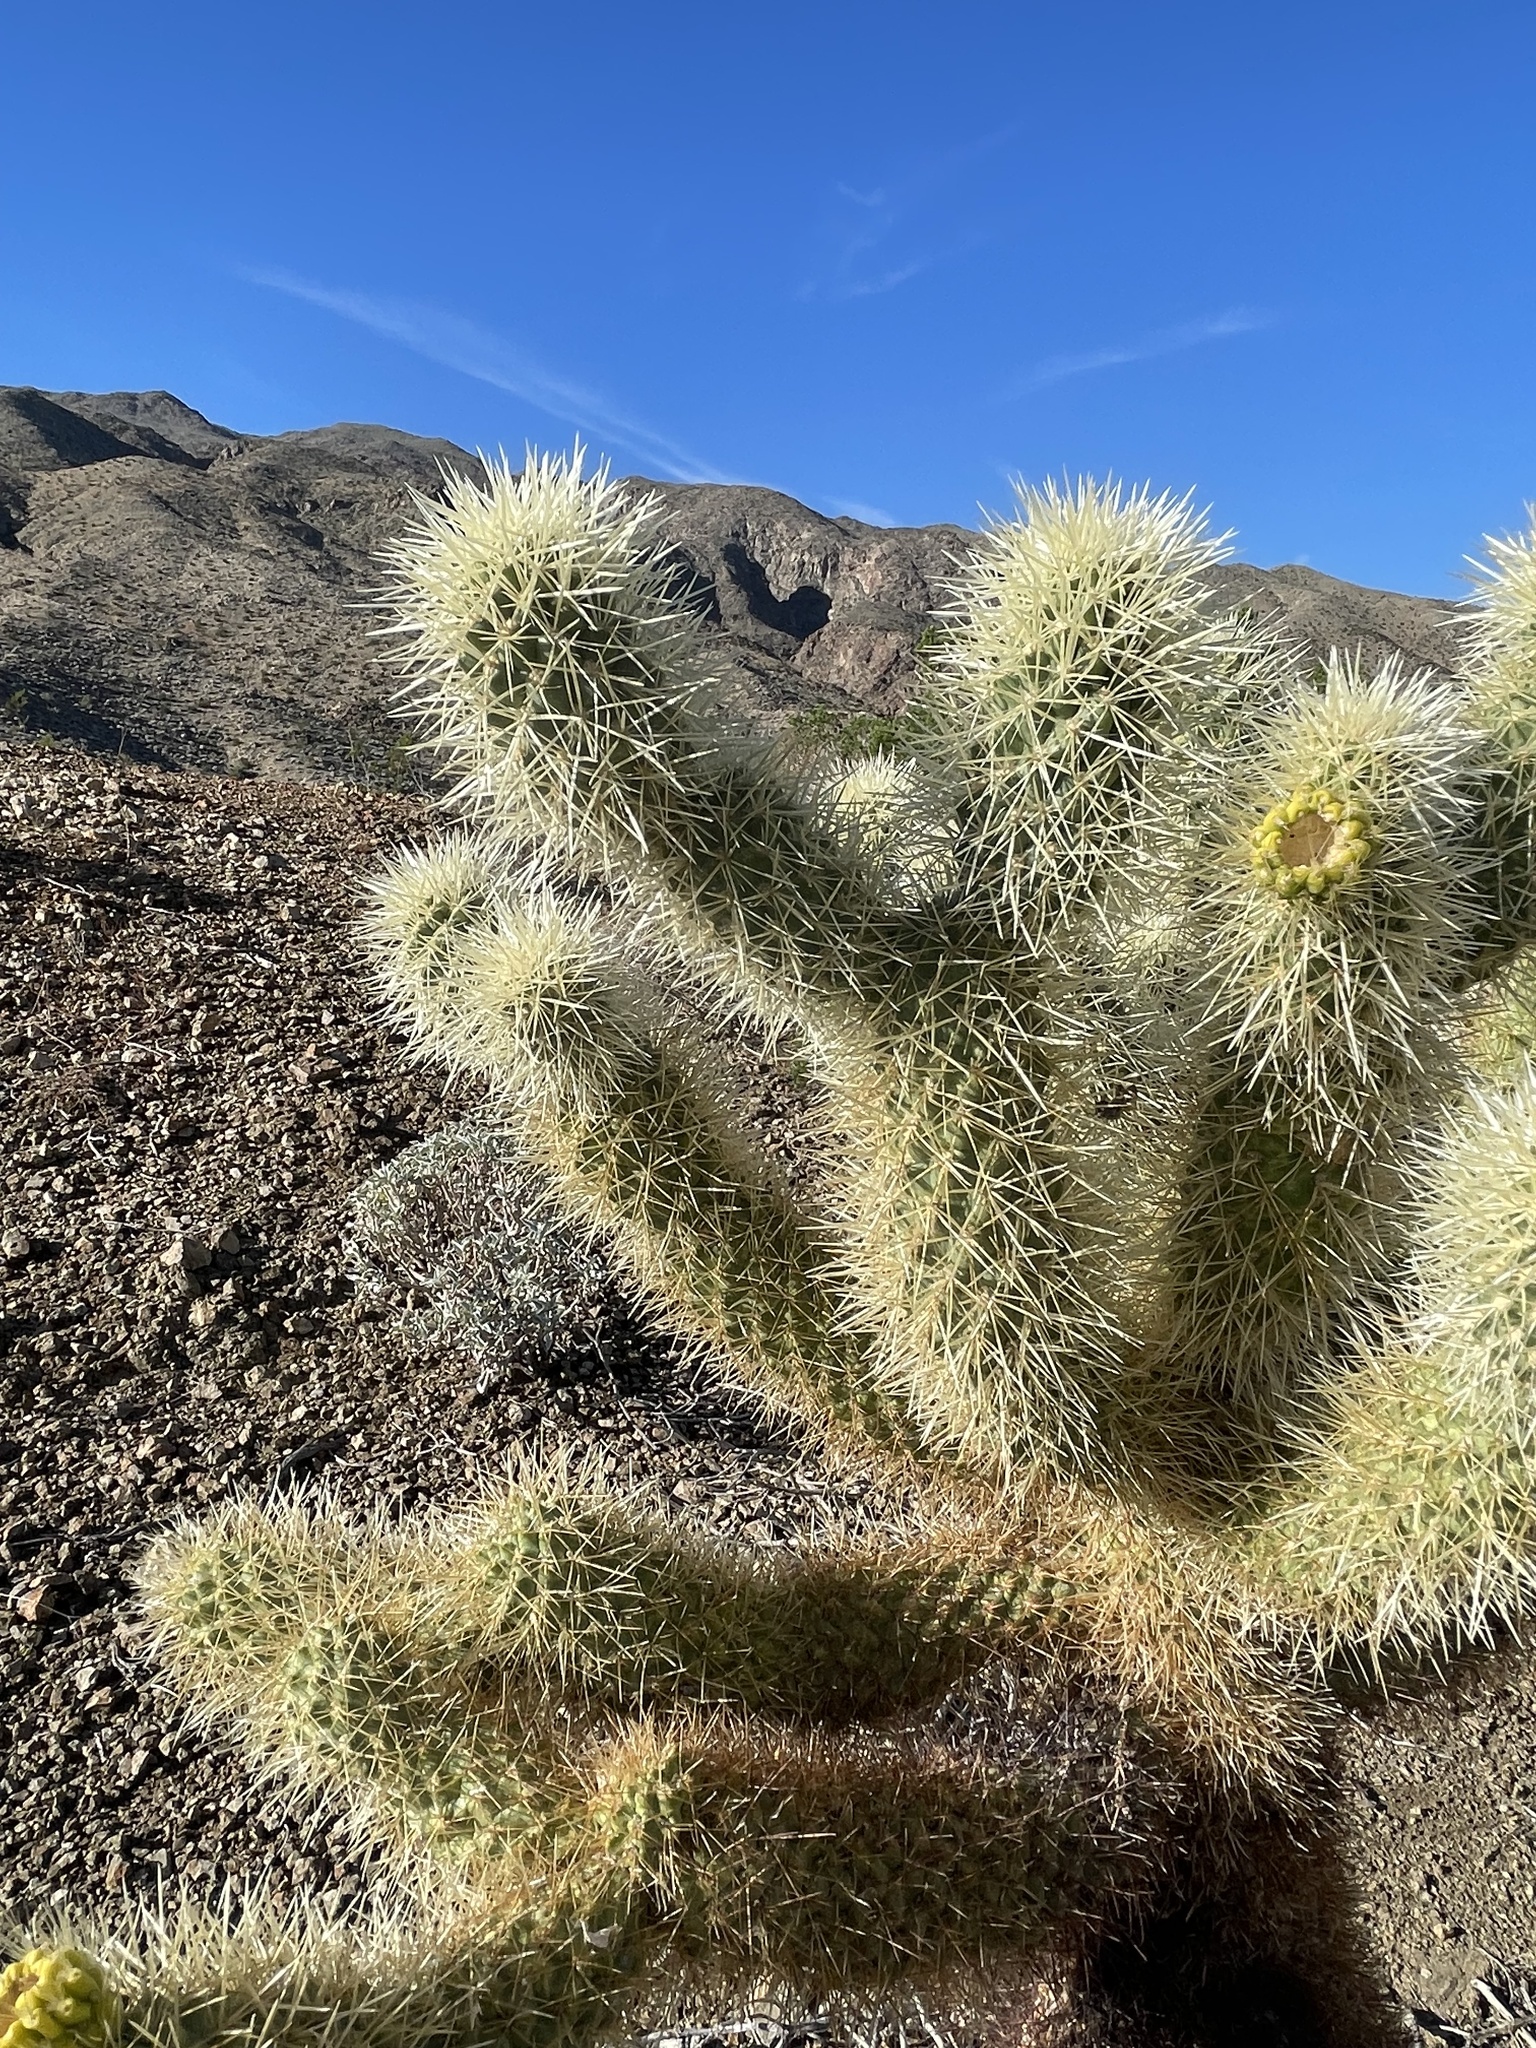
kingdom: Plantae
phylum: Tracheophyta
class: Magnoliopsida
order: Caryophyllales
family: Cactaceae
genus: Cylindropuntia
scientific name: Cylindropuntia fosbergii
